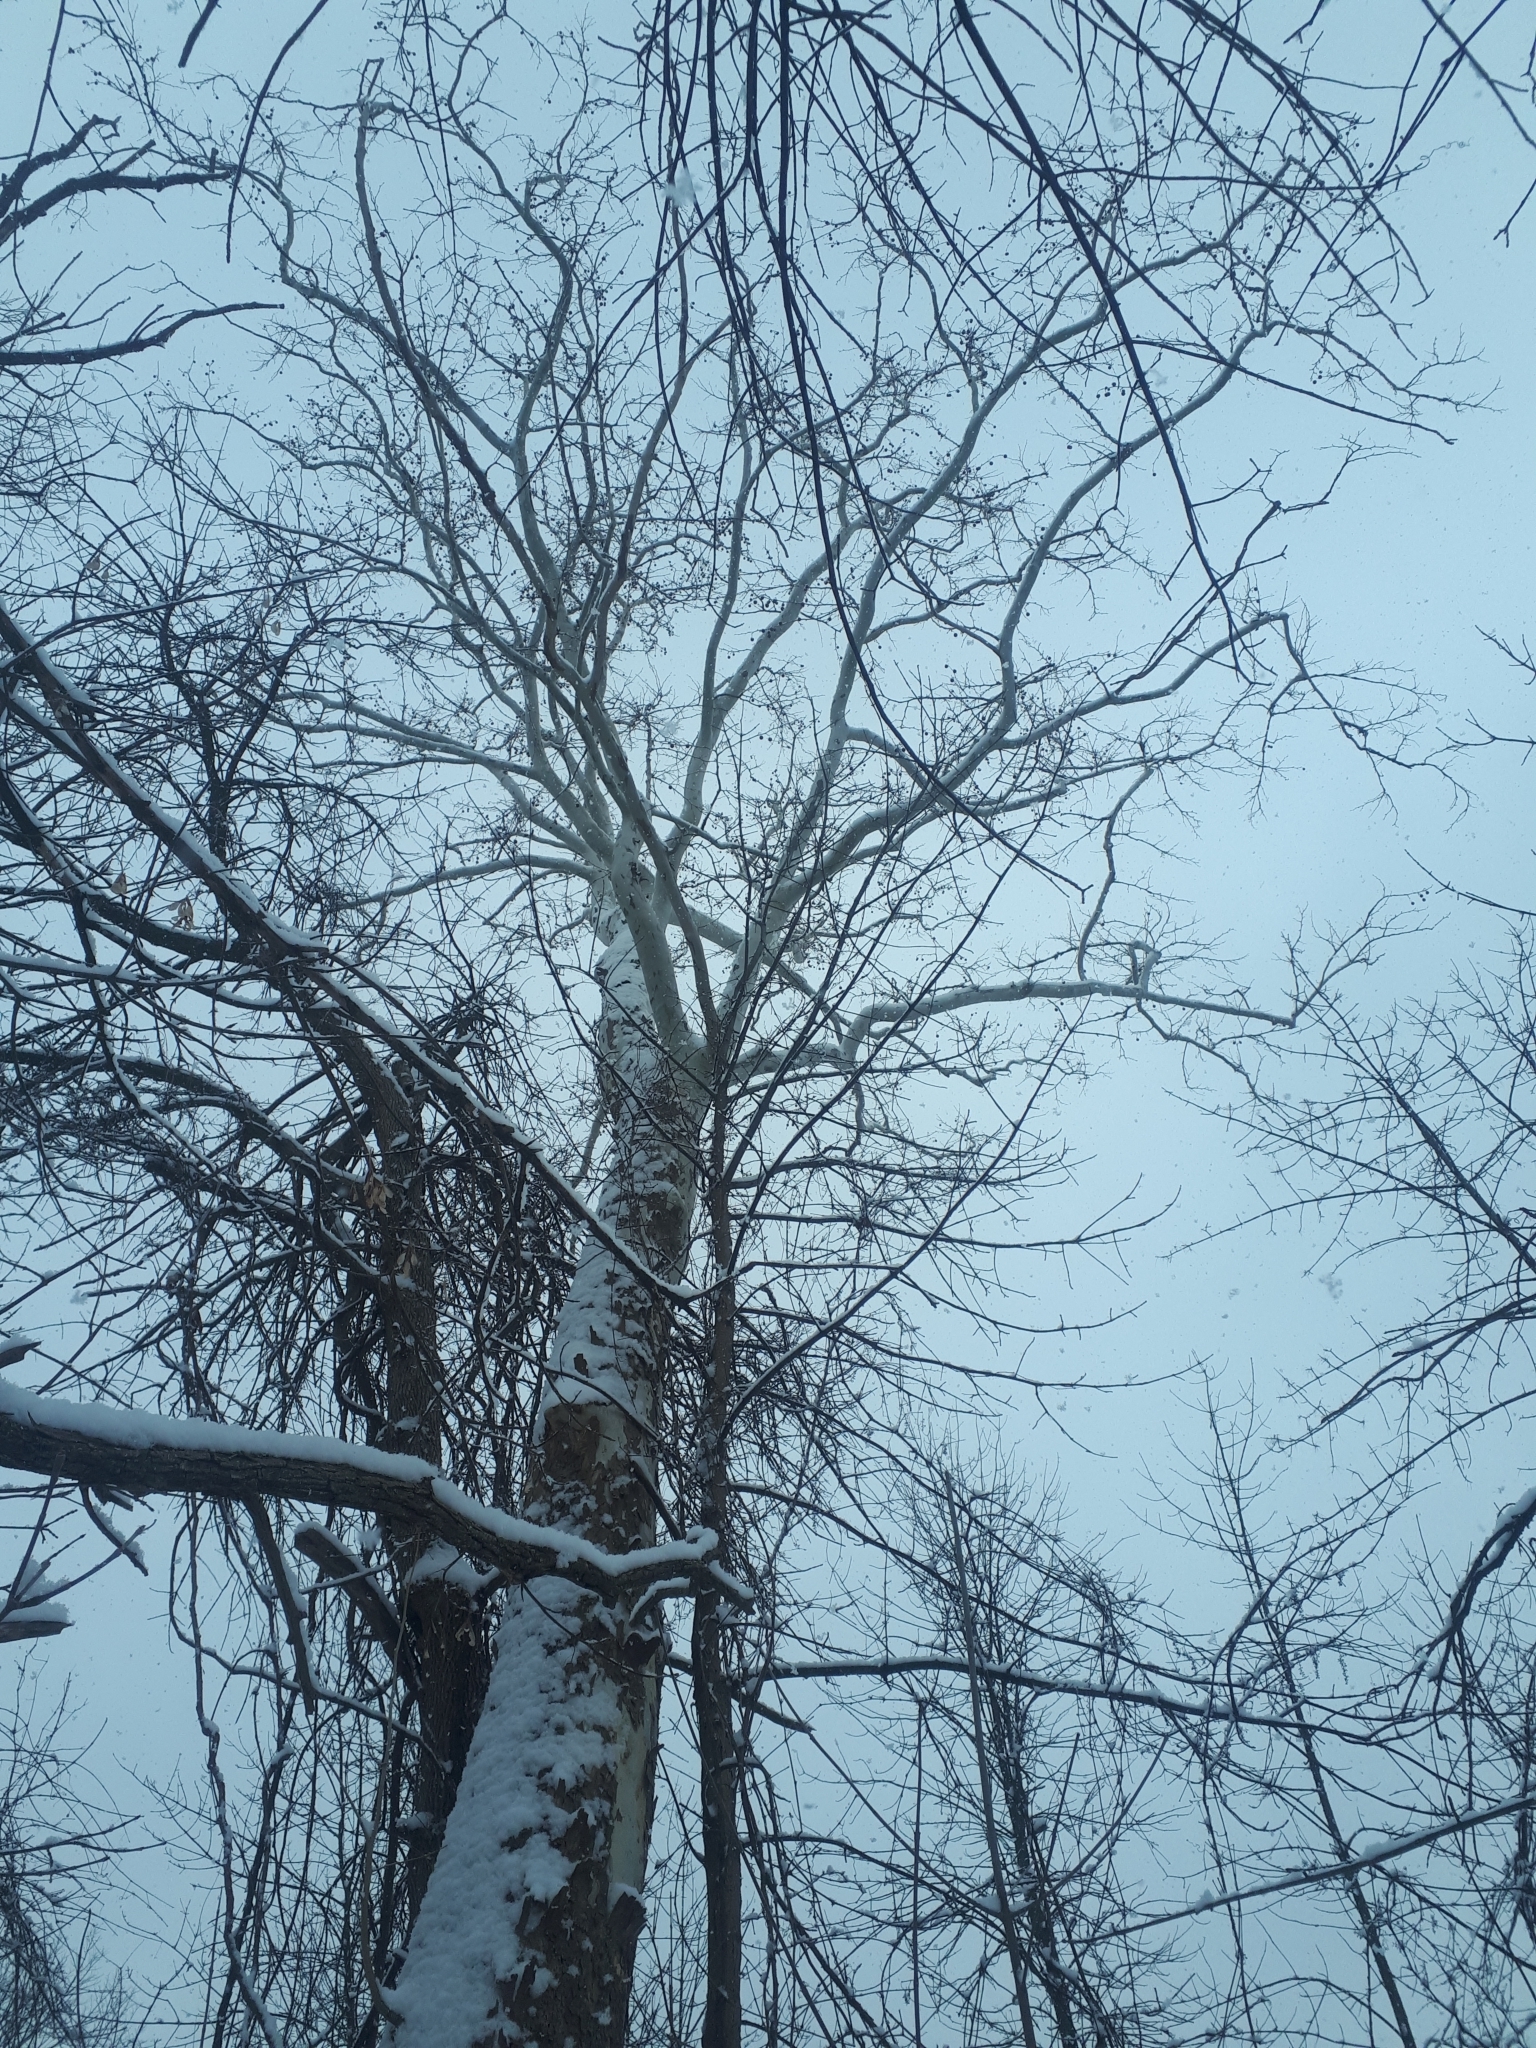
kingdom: Plantae
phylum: Tracheophyta
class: Magnoliopsida
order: Proteales
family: Platanaceae
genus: Platanus
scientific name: Platanus occidentalis
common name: American sycamore
